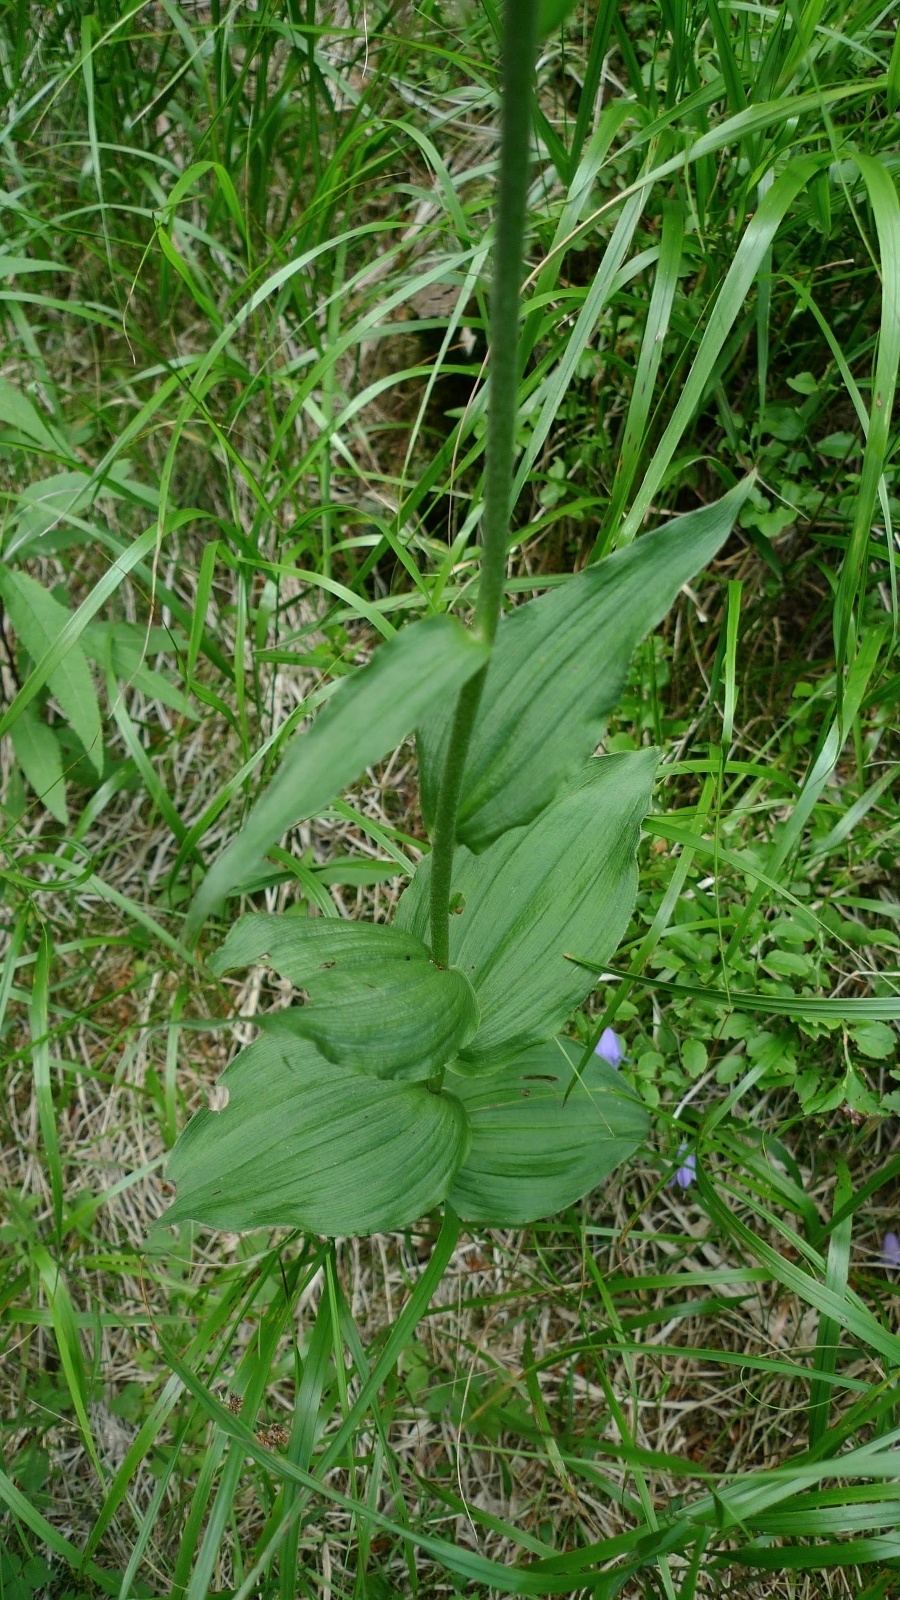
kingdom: Plantae
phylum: Tracheophyta
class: Liliopsida
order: Asparagales
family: Orchidaceae
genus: Epipactis
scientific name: Epipactis helleborine
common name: Broad-leaved helleborine
